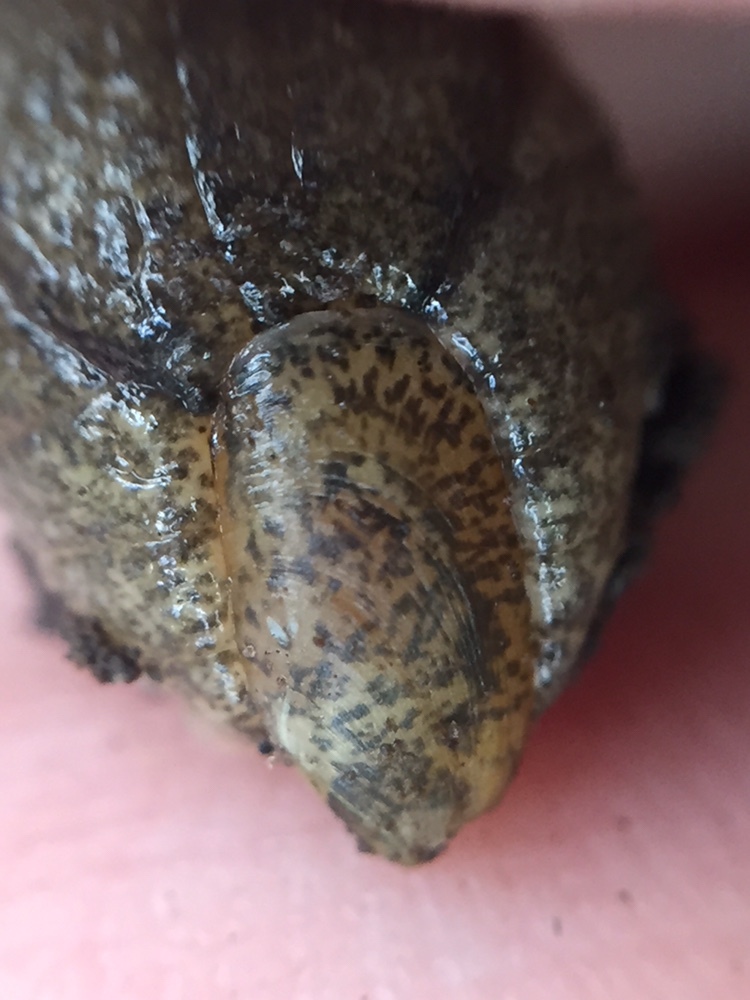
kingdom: Animalia
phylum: Mollusca
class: Gastropoda
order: Stylommatophora
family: Testacellidae
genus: Testacella
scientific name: Testacella maugei
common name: Mauge's slug
